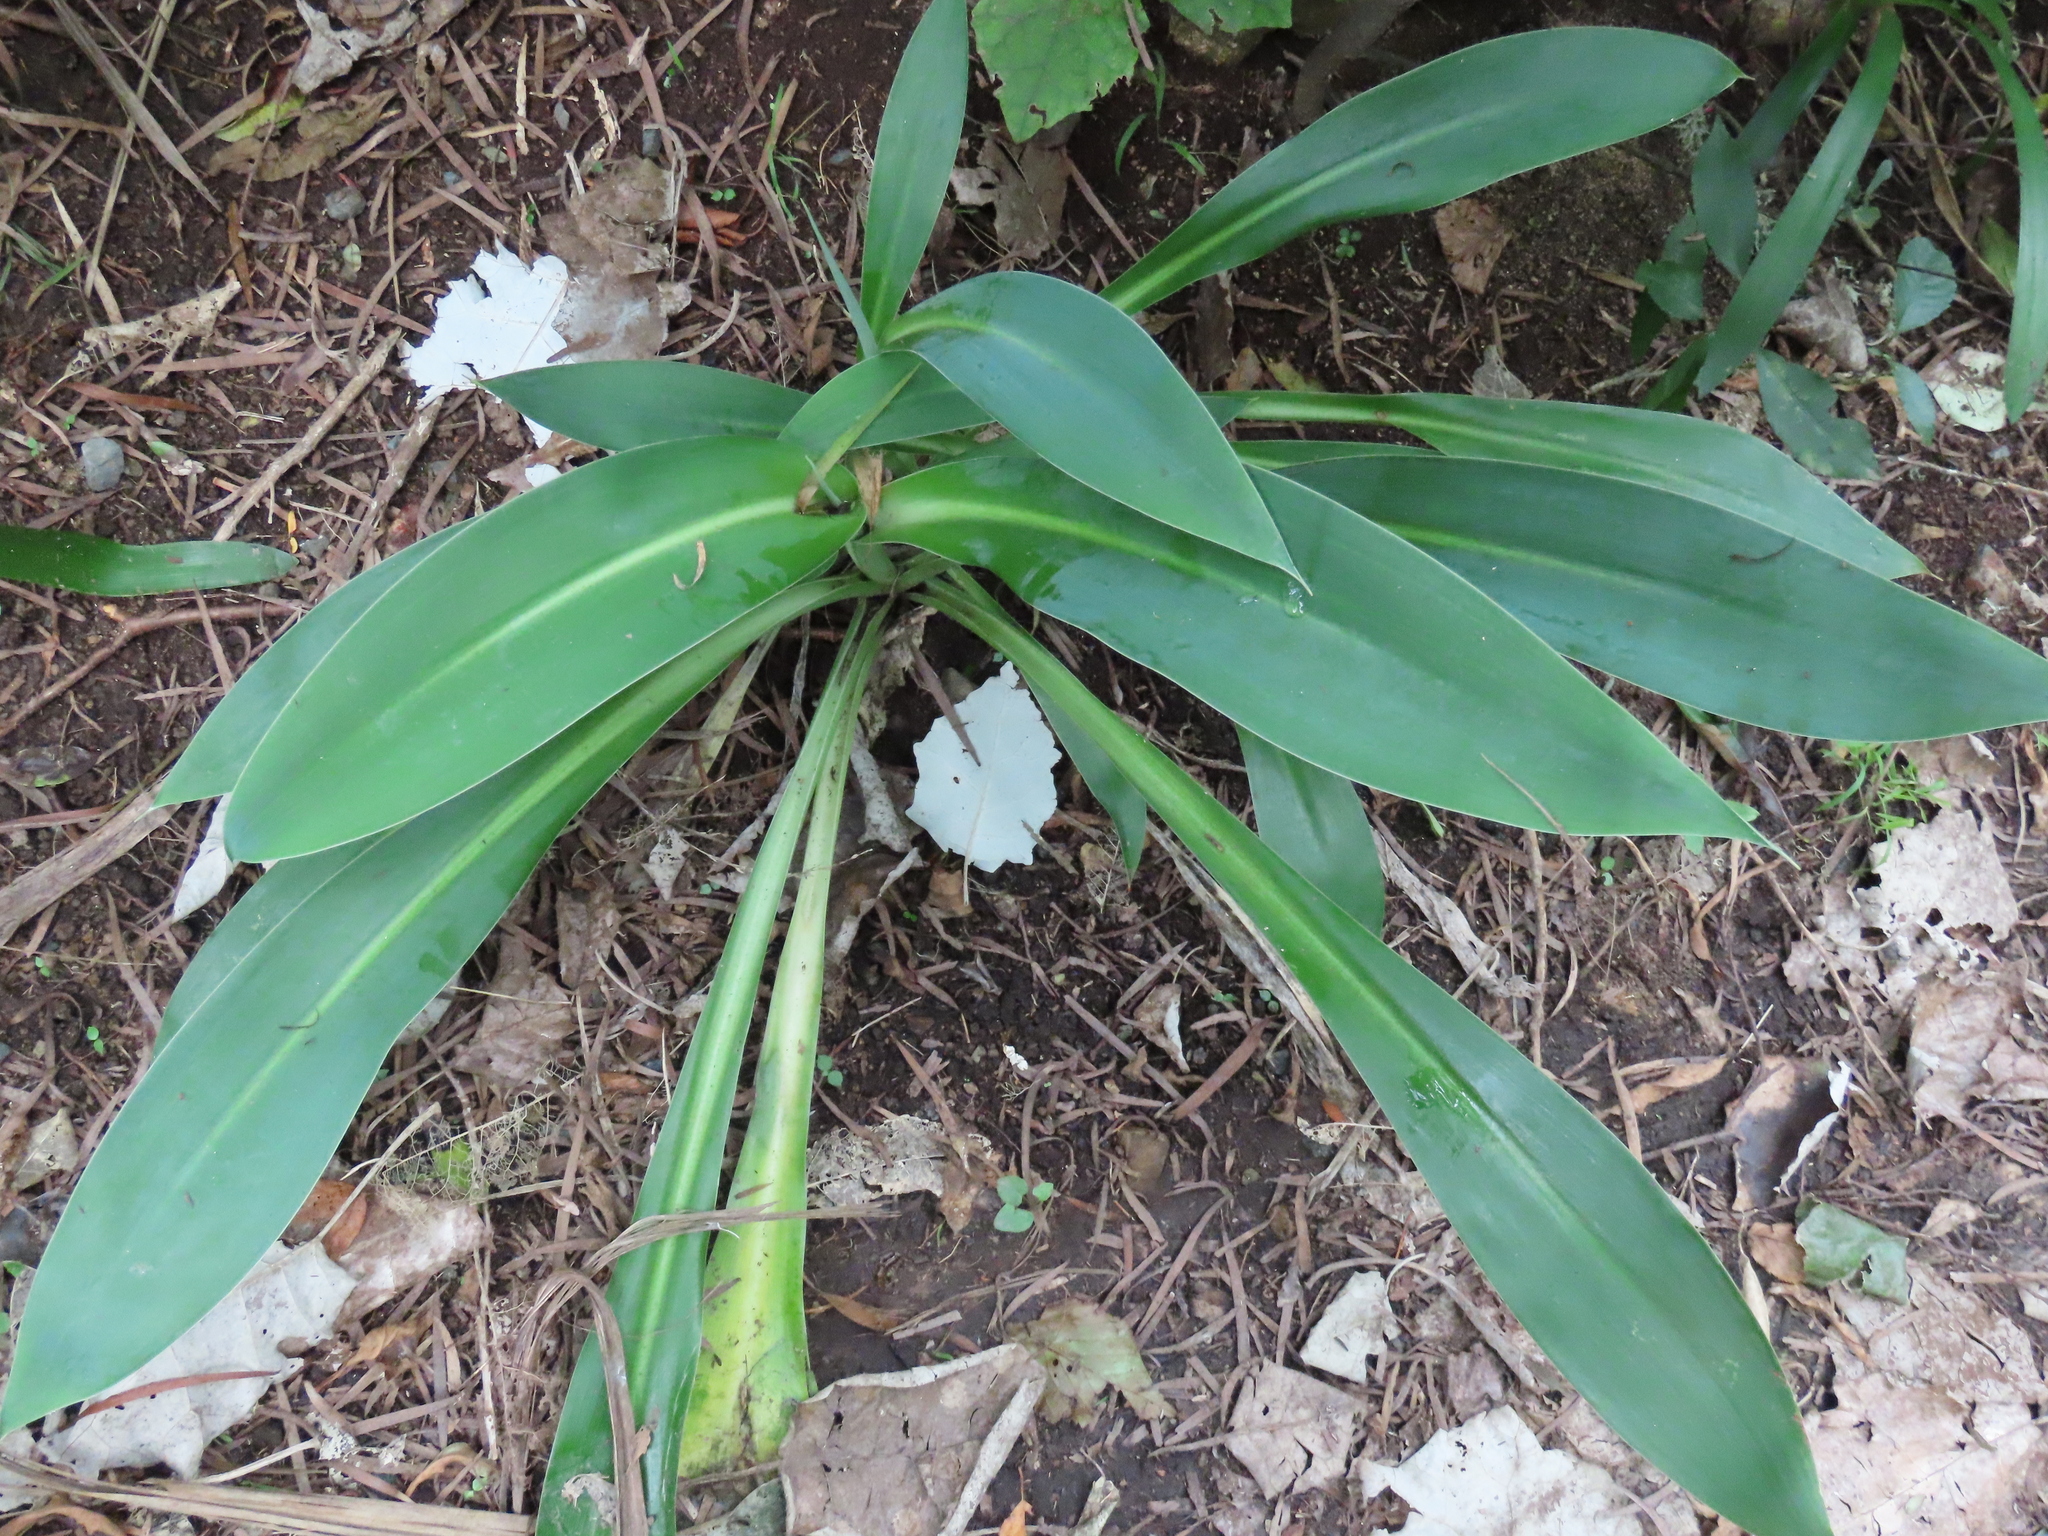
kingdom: Plantae
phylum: Tracheophyta
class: Liliopsida
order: Asparagales
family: Asparagaceae
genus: Arthropodium
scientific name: Arthropodium cirratum
